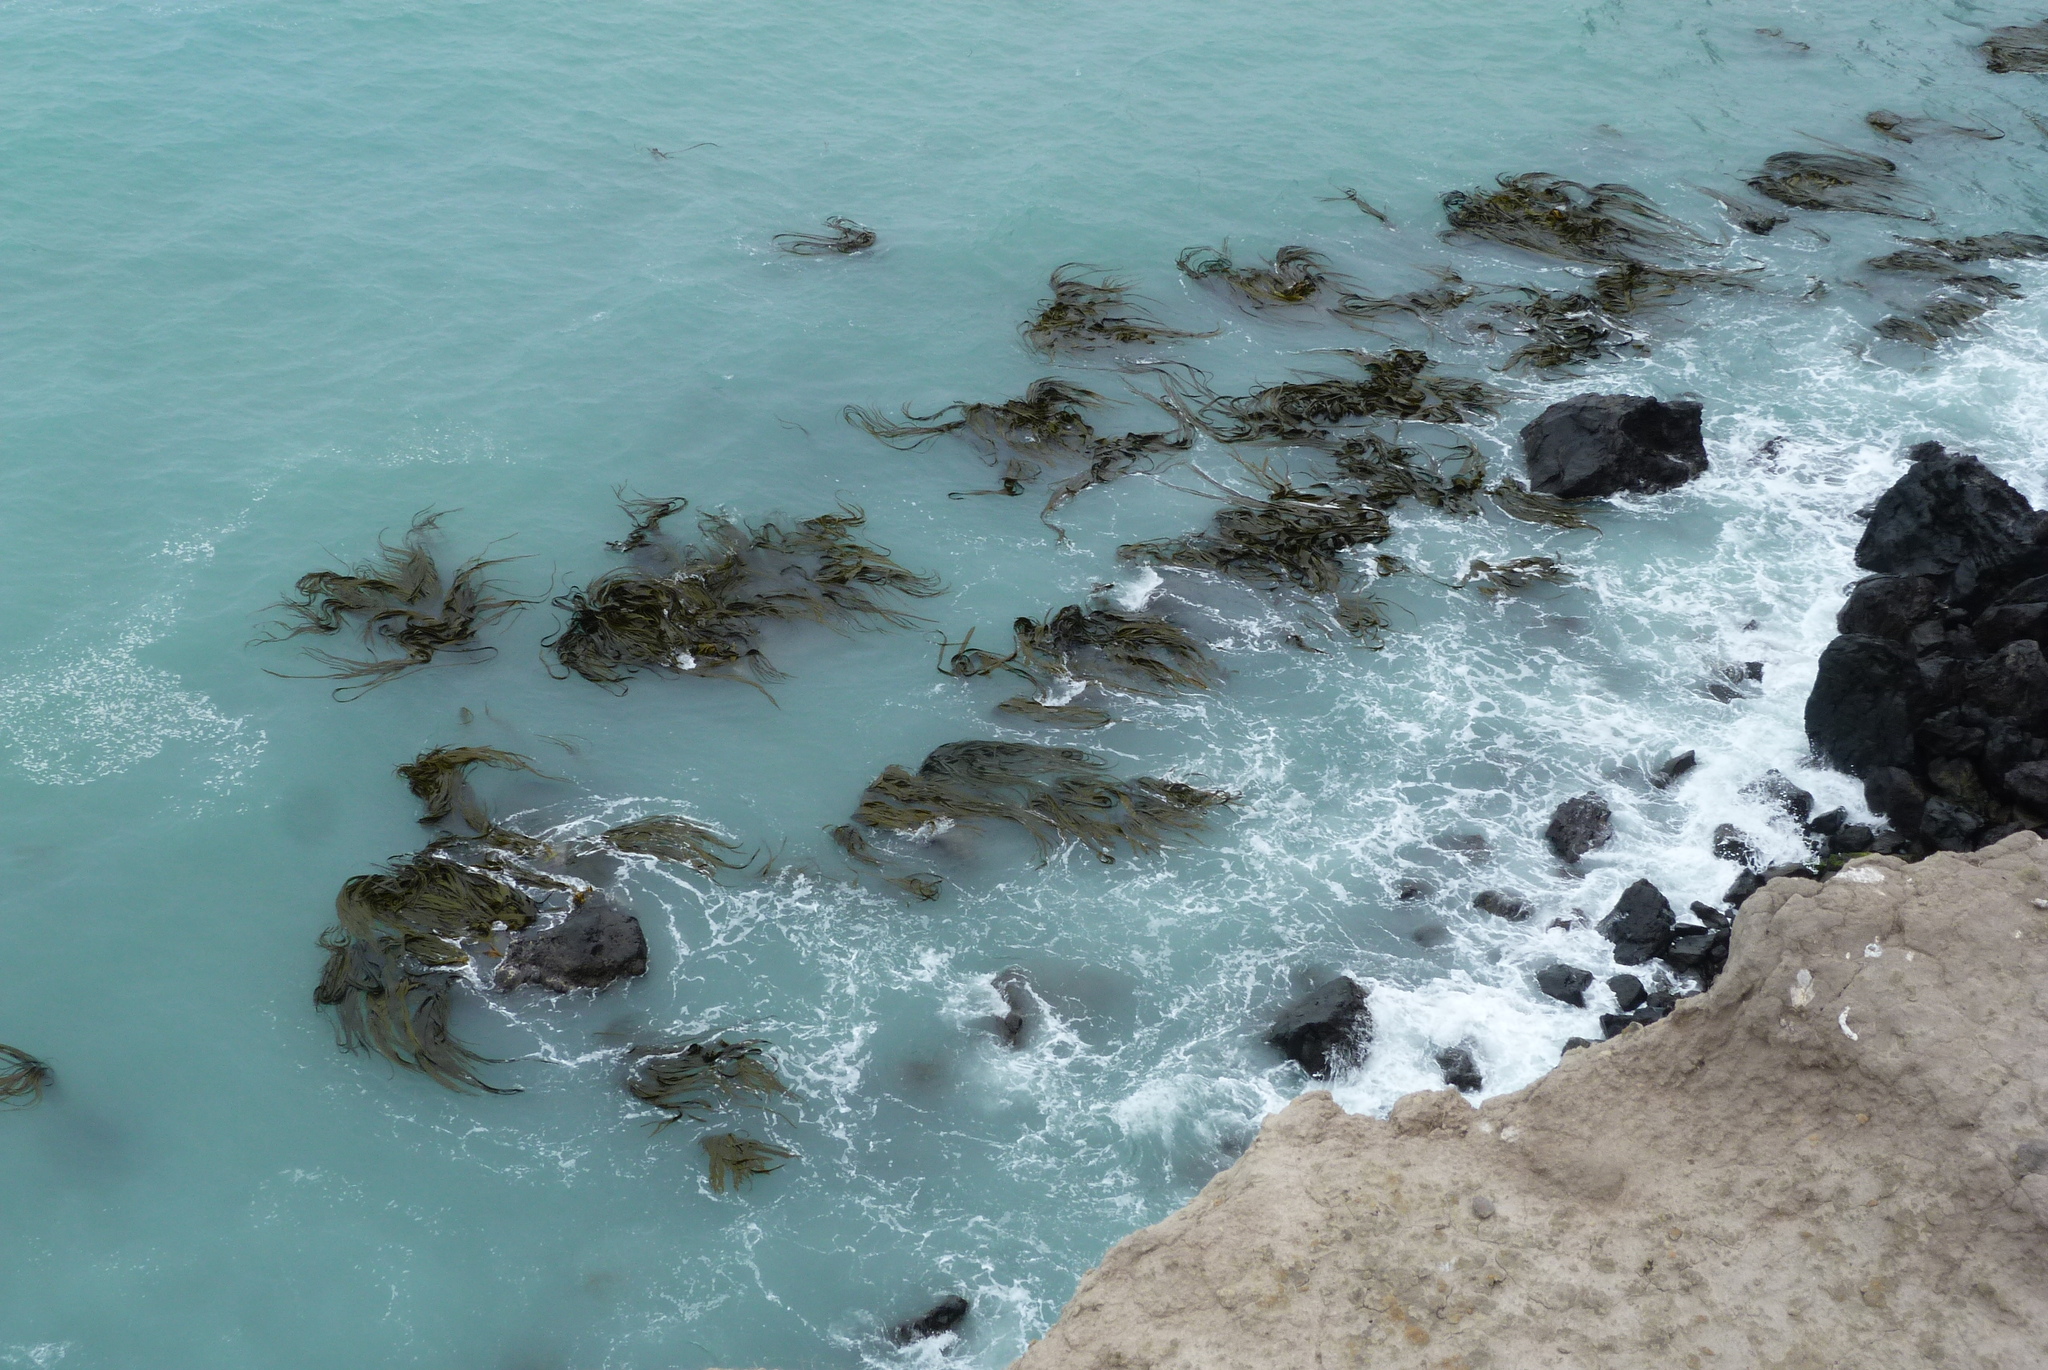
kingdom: Chromista
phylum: Ochrophyta
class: Phaeophyceae
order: Fucales
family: Durvillaeaceae
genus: Durvillaea
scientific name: Durvillaea antarctica
